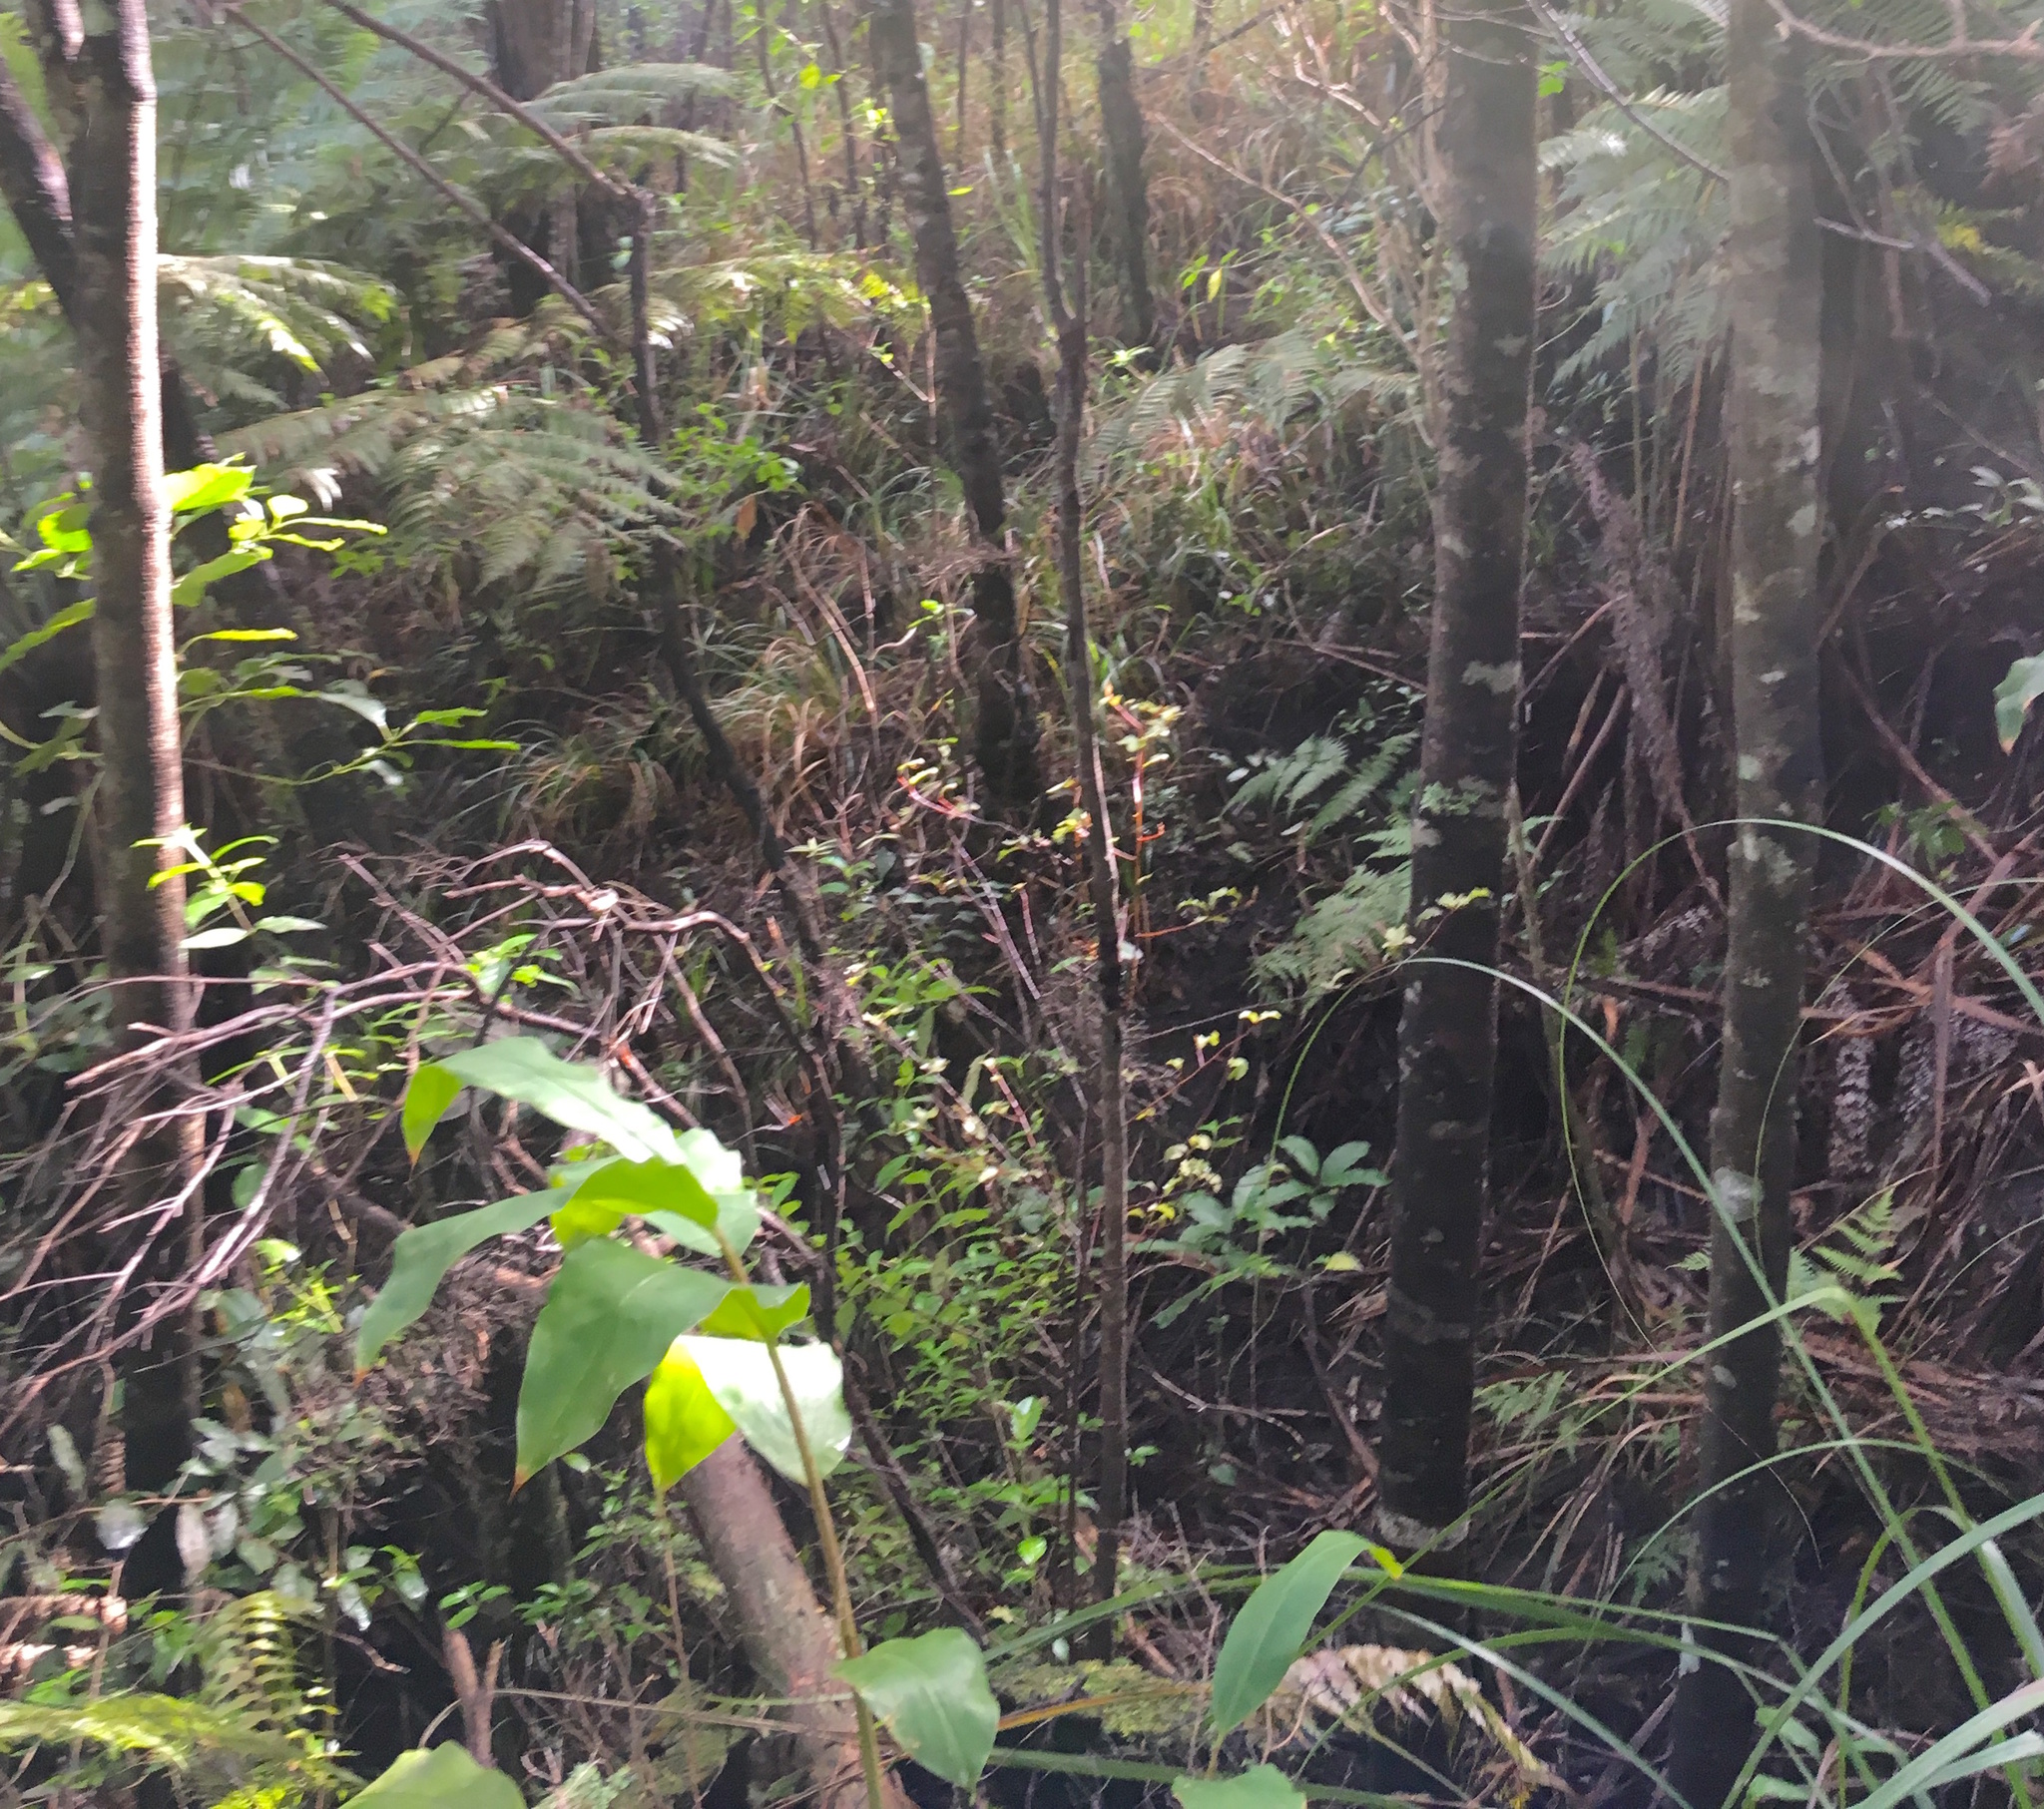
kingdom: Plantae
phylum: Tracheophyta
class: Liliopsida
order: Zingiberales
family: Zingiberaceae
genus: Hedychium
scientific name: Hedychium gardnerianum
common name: Himalayan ginger
